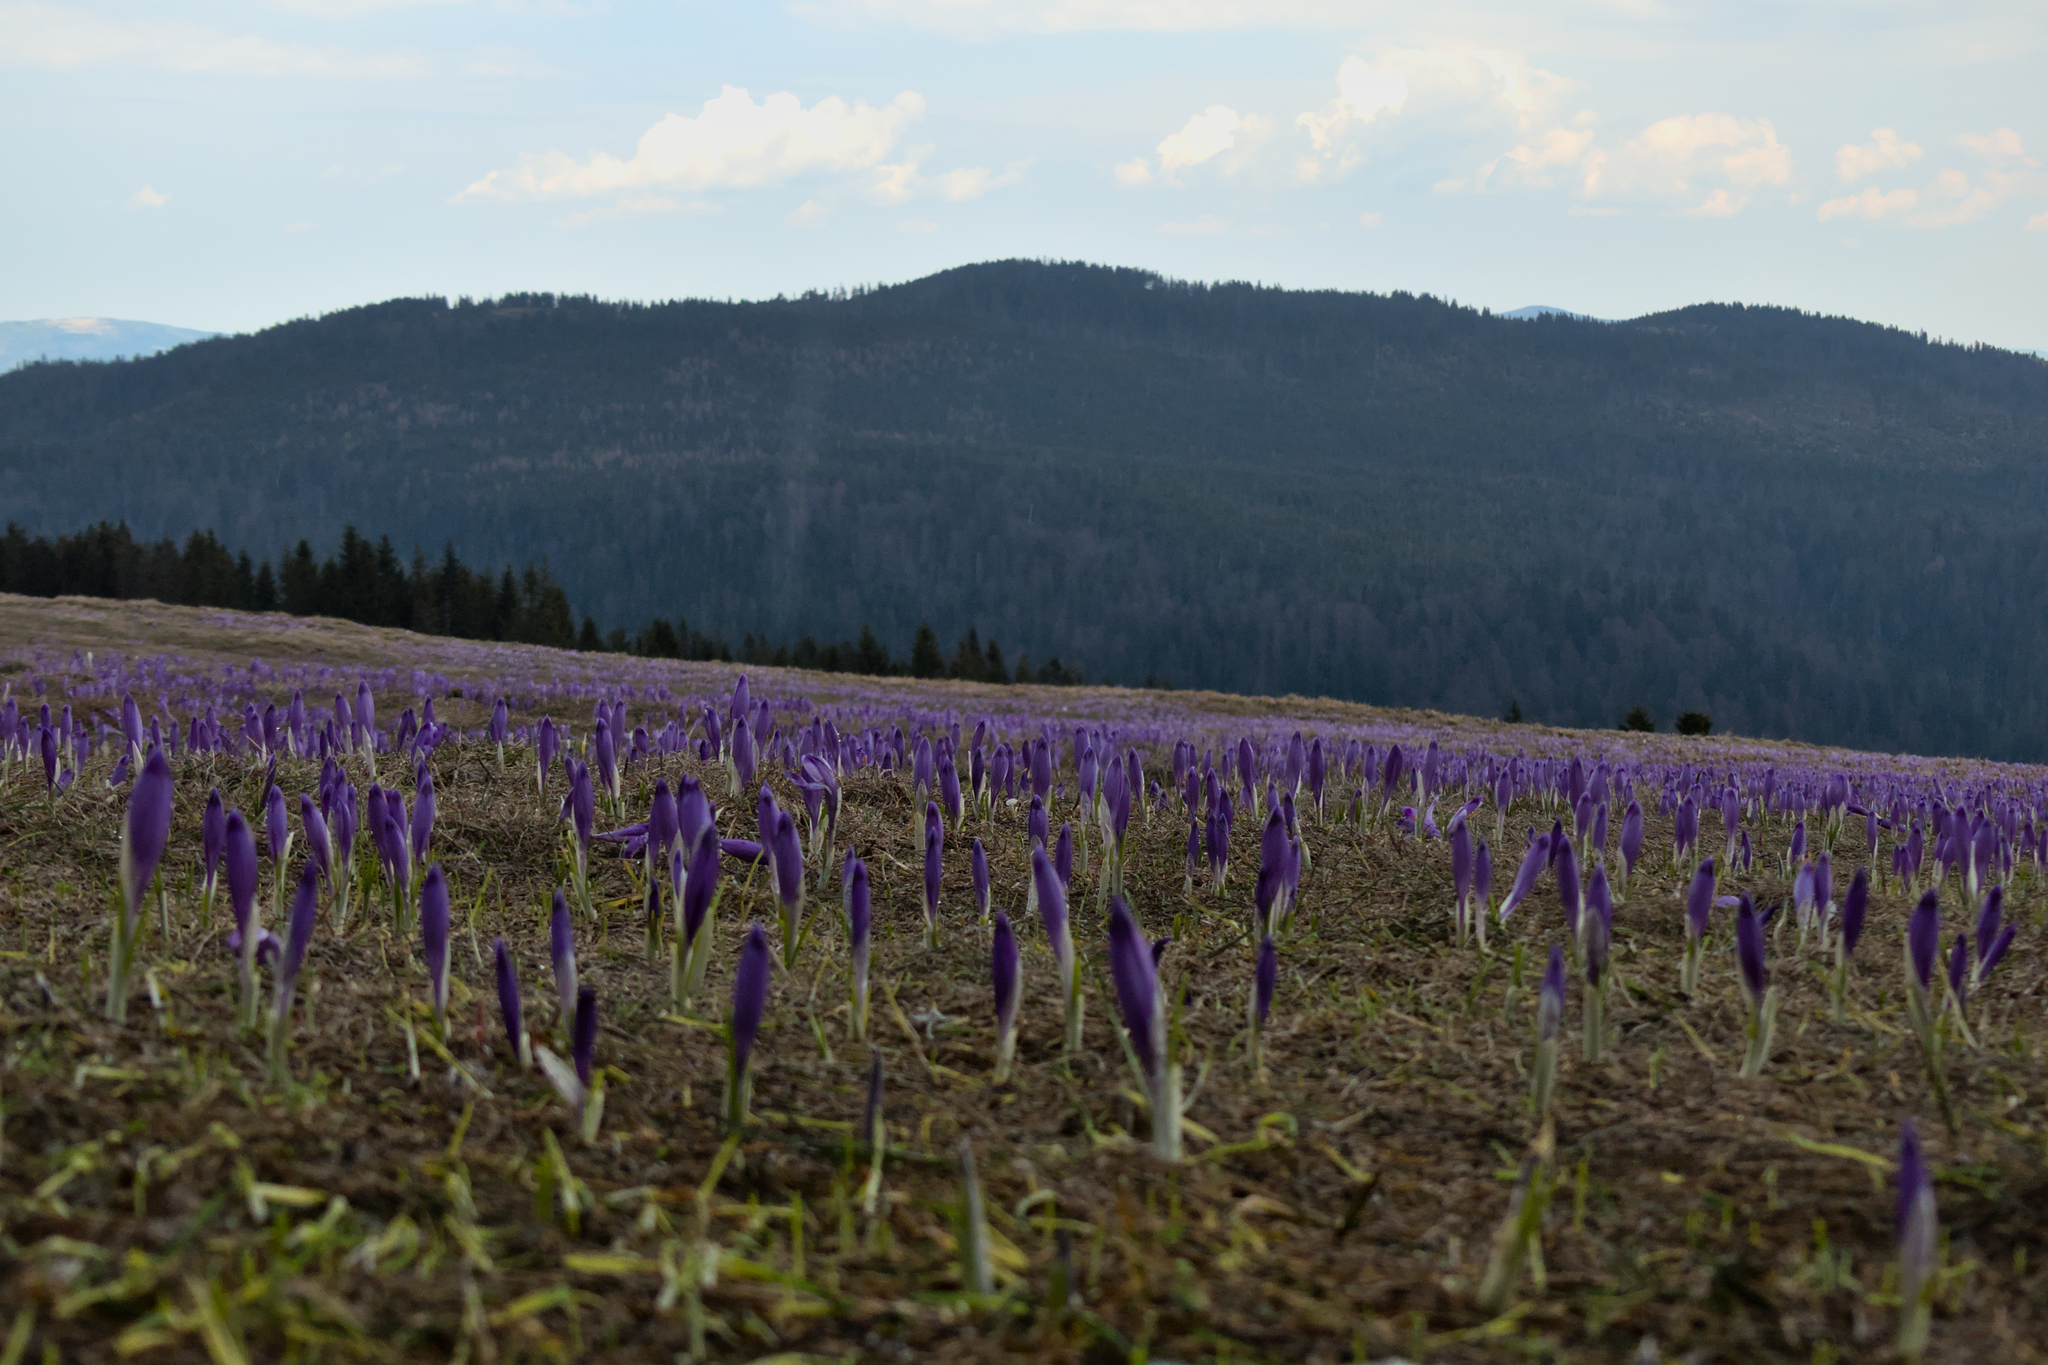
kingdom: Plantae
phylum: Tracheophyta
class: Liliopsida
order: Asparagales
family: Iridaceae
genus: Crocus
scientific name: Crocus heuffelianus
